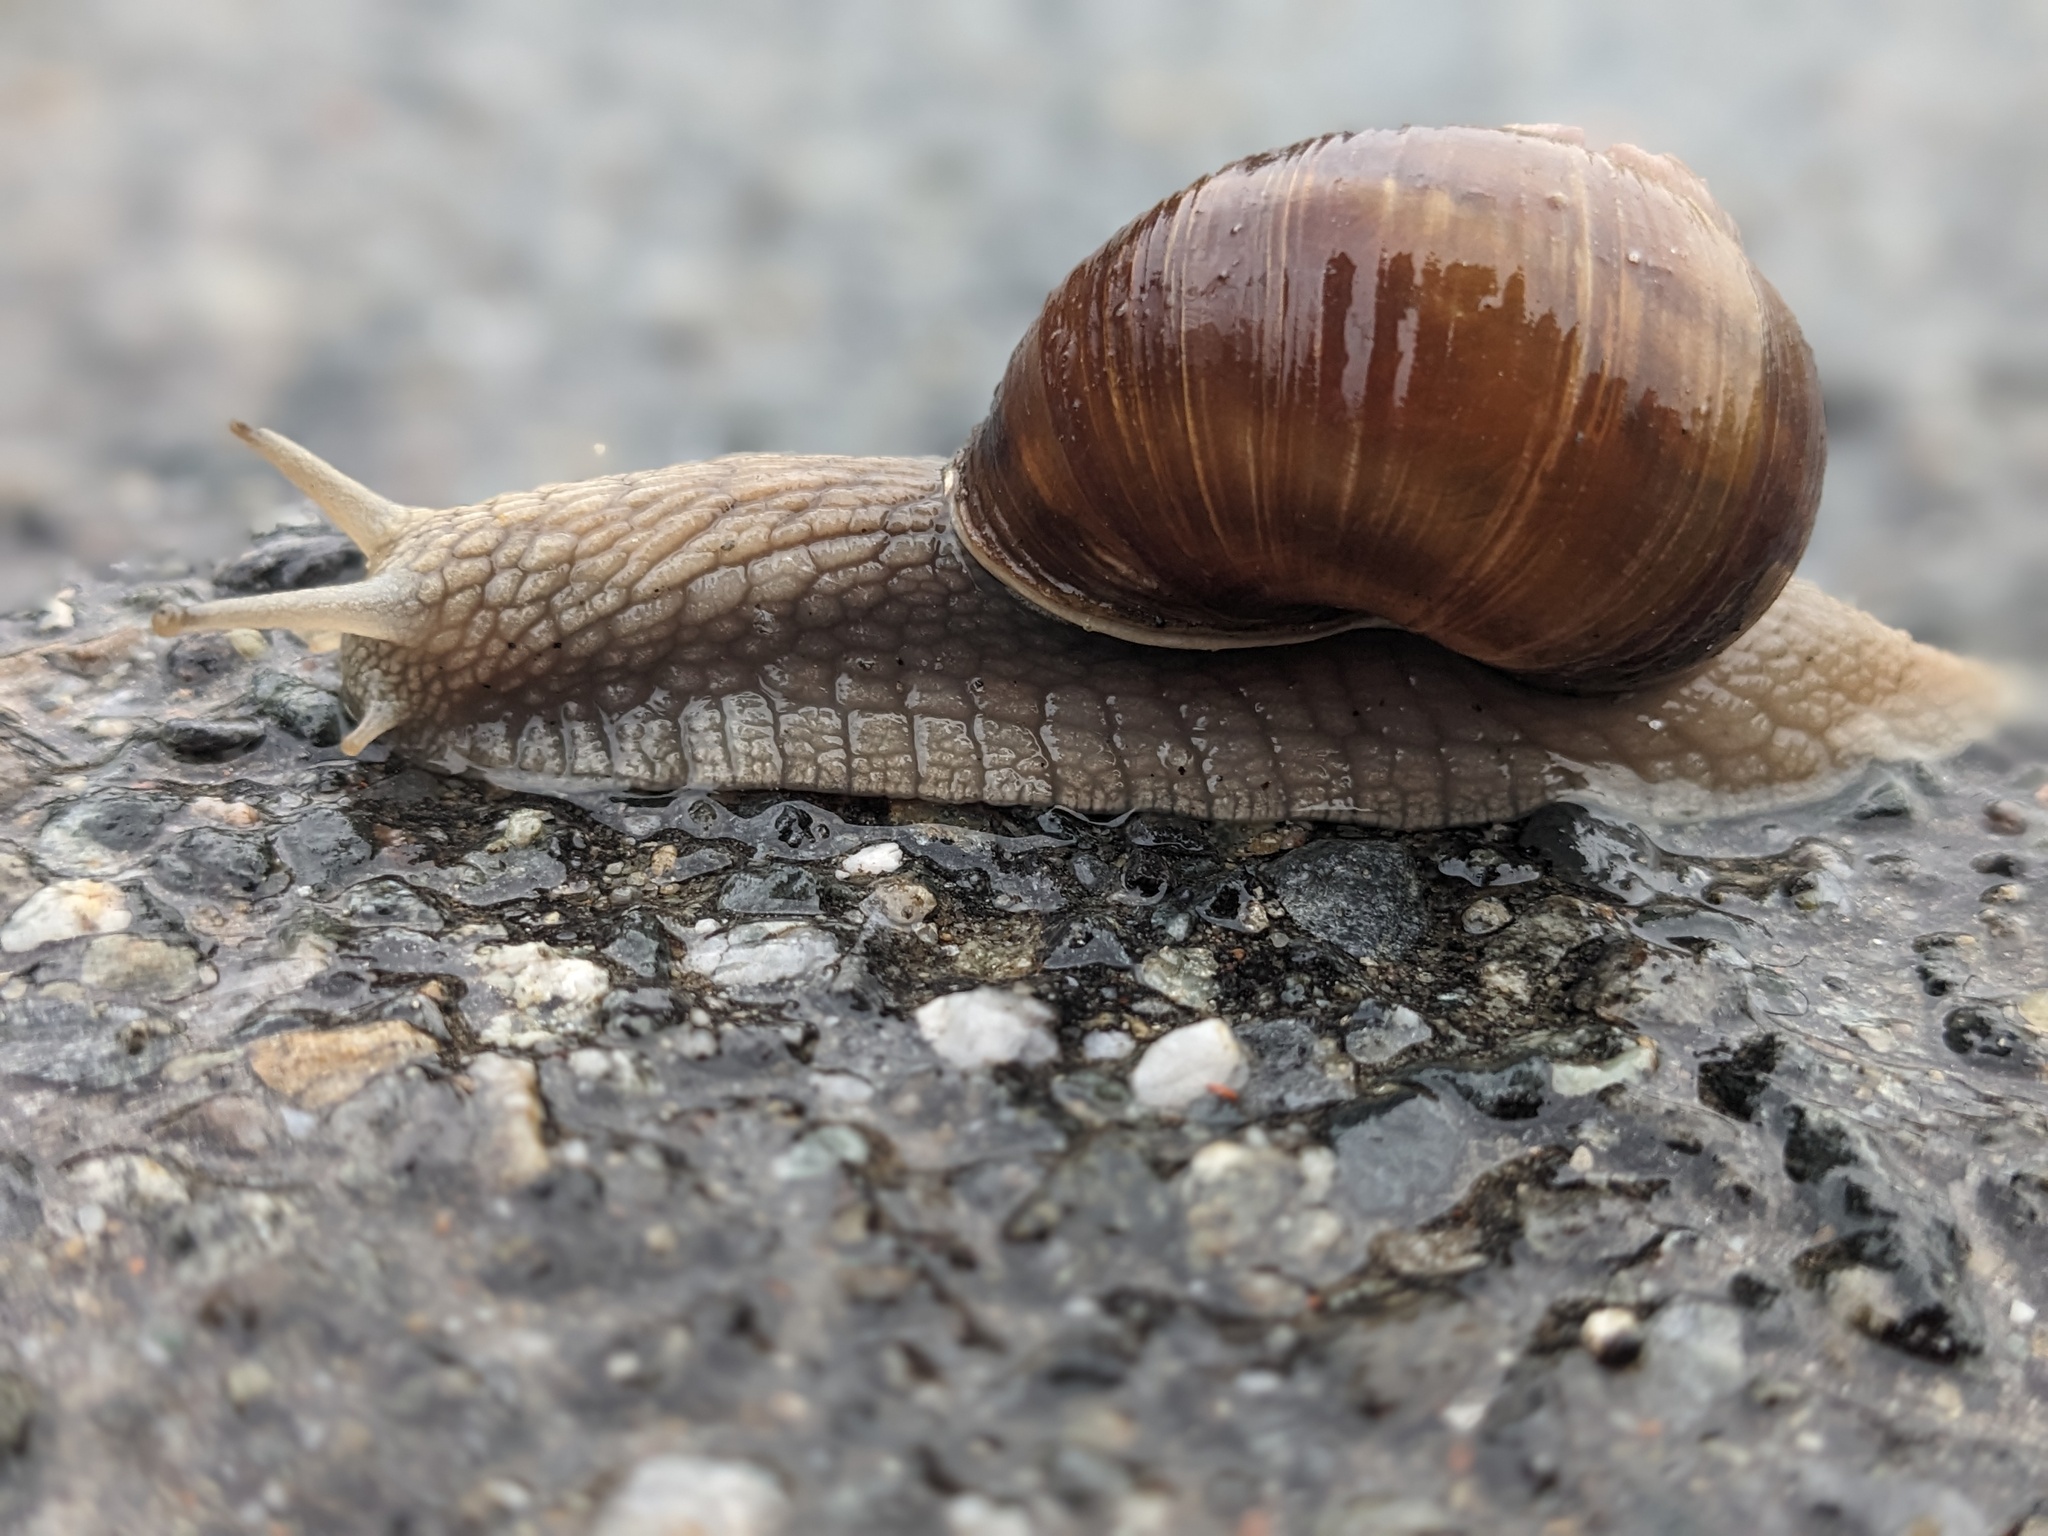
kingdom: Animalia
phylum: Mollusca
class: Gastropoda
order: Stylommatophora
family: Helicidae
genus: Helix
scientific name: Helix pomatia
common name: Roman snail
